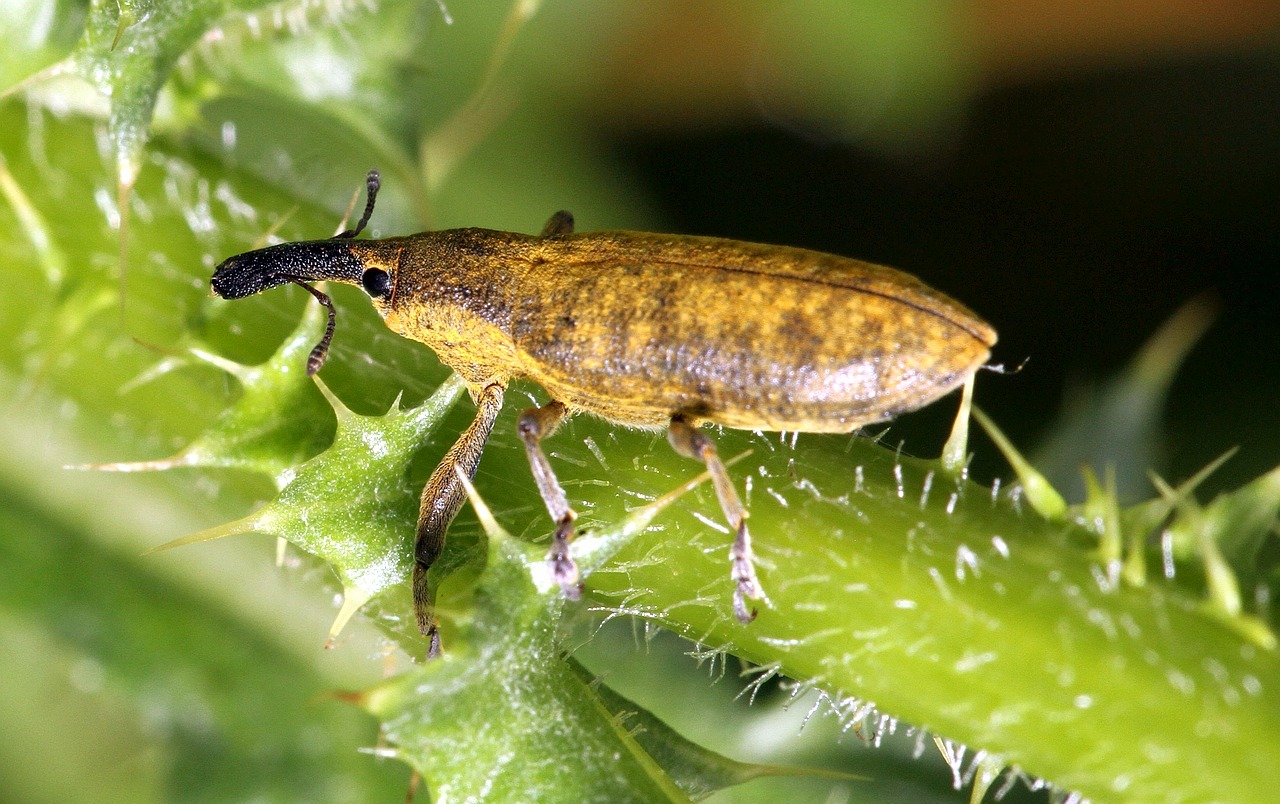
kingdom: Animalia
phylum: Arthropoda
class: Insecta
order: Coleoptera
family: Curculionidae
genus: Lixus
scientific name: Lixus pulverulentus
